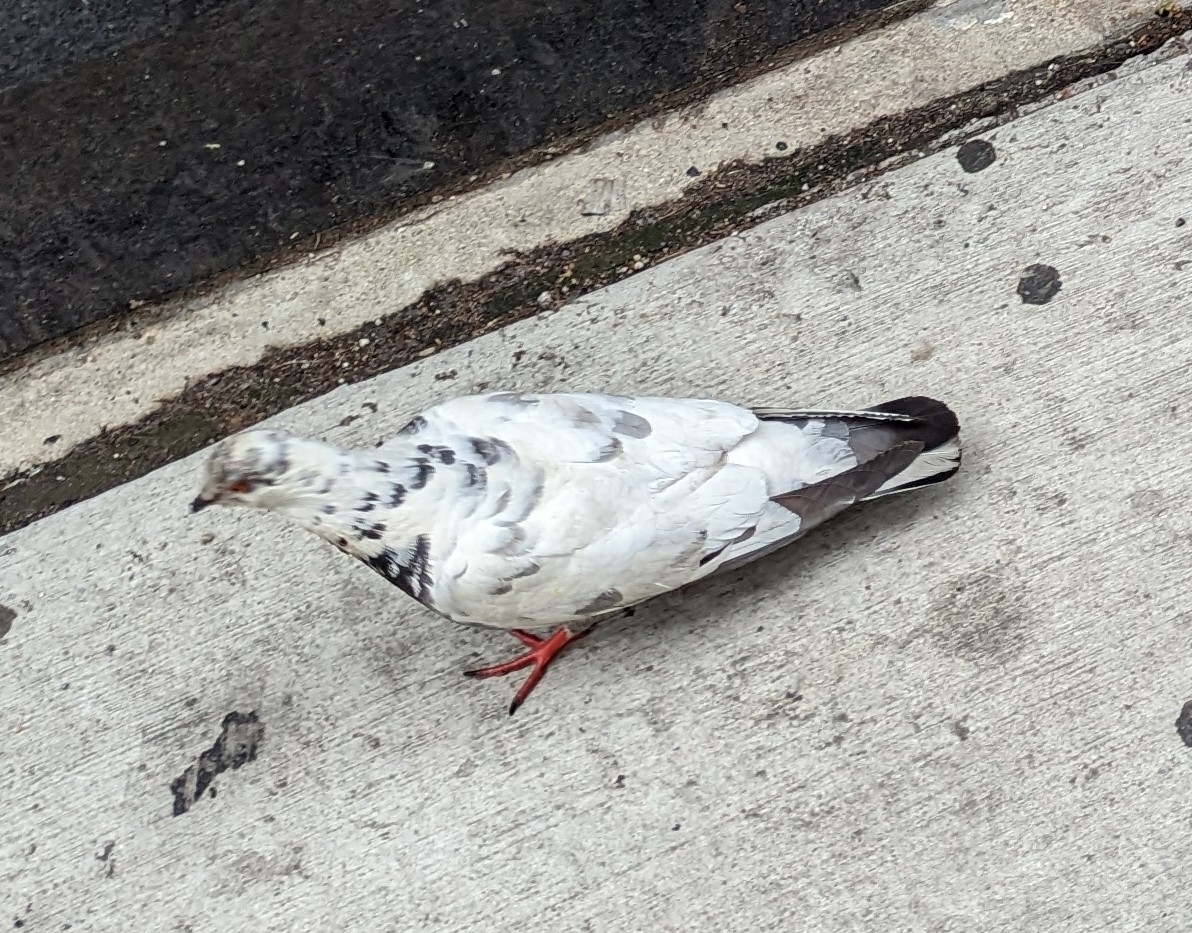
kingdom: Animalia
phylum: Chordata
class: Aves
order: Columbiformes
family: Columbidae
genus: Columba
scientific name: Columba livia
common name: Rock pigeon
